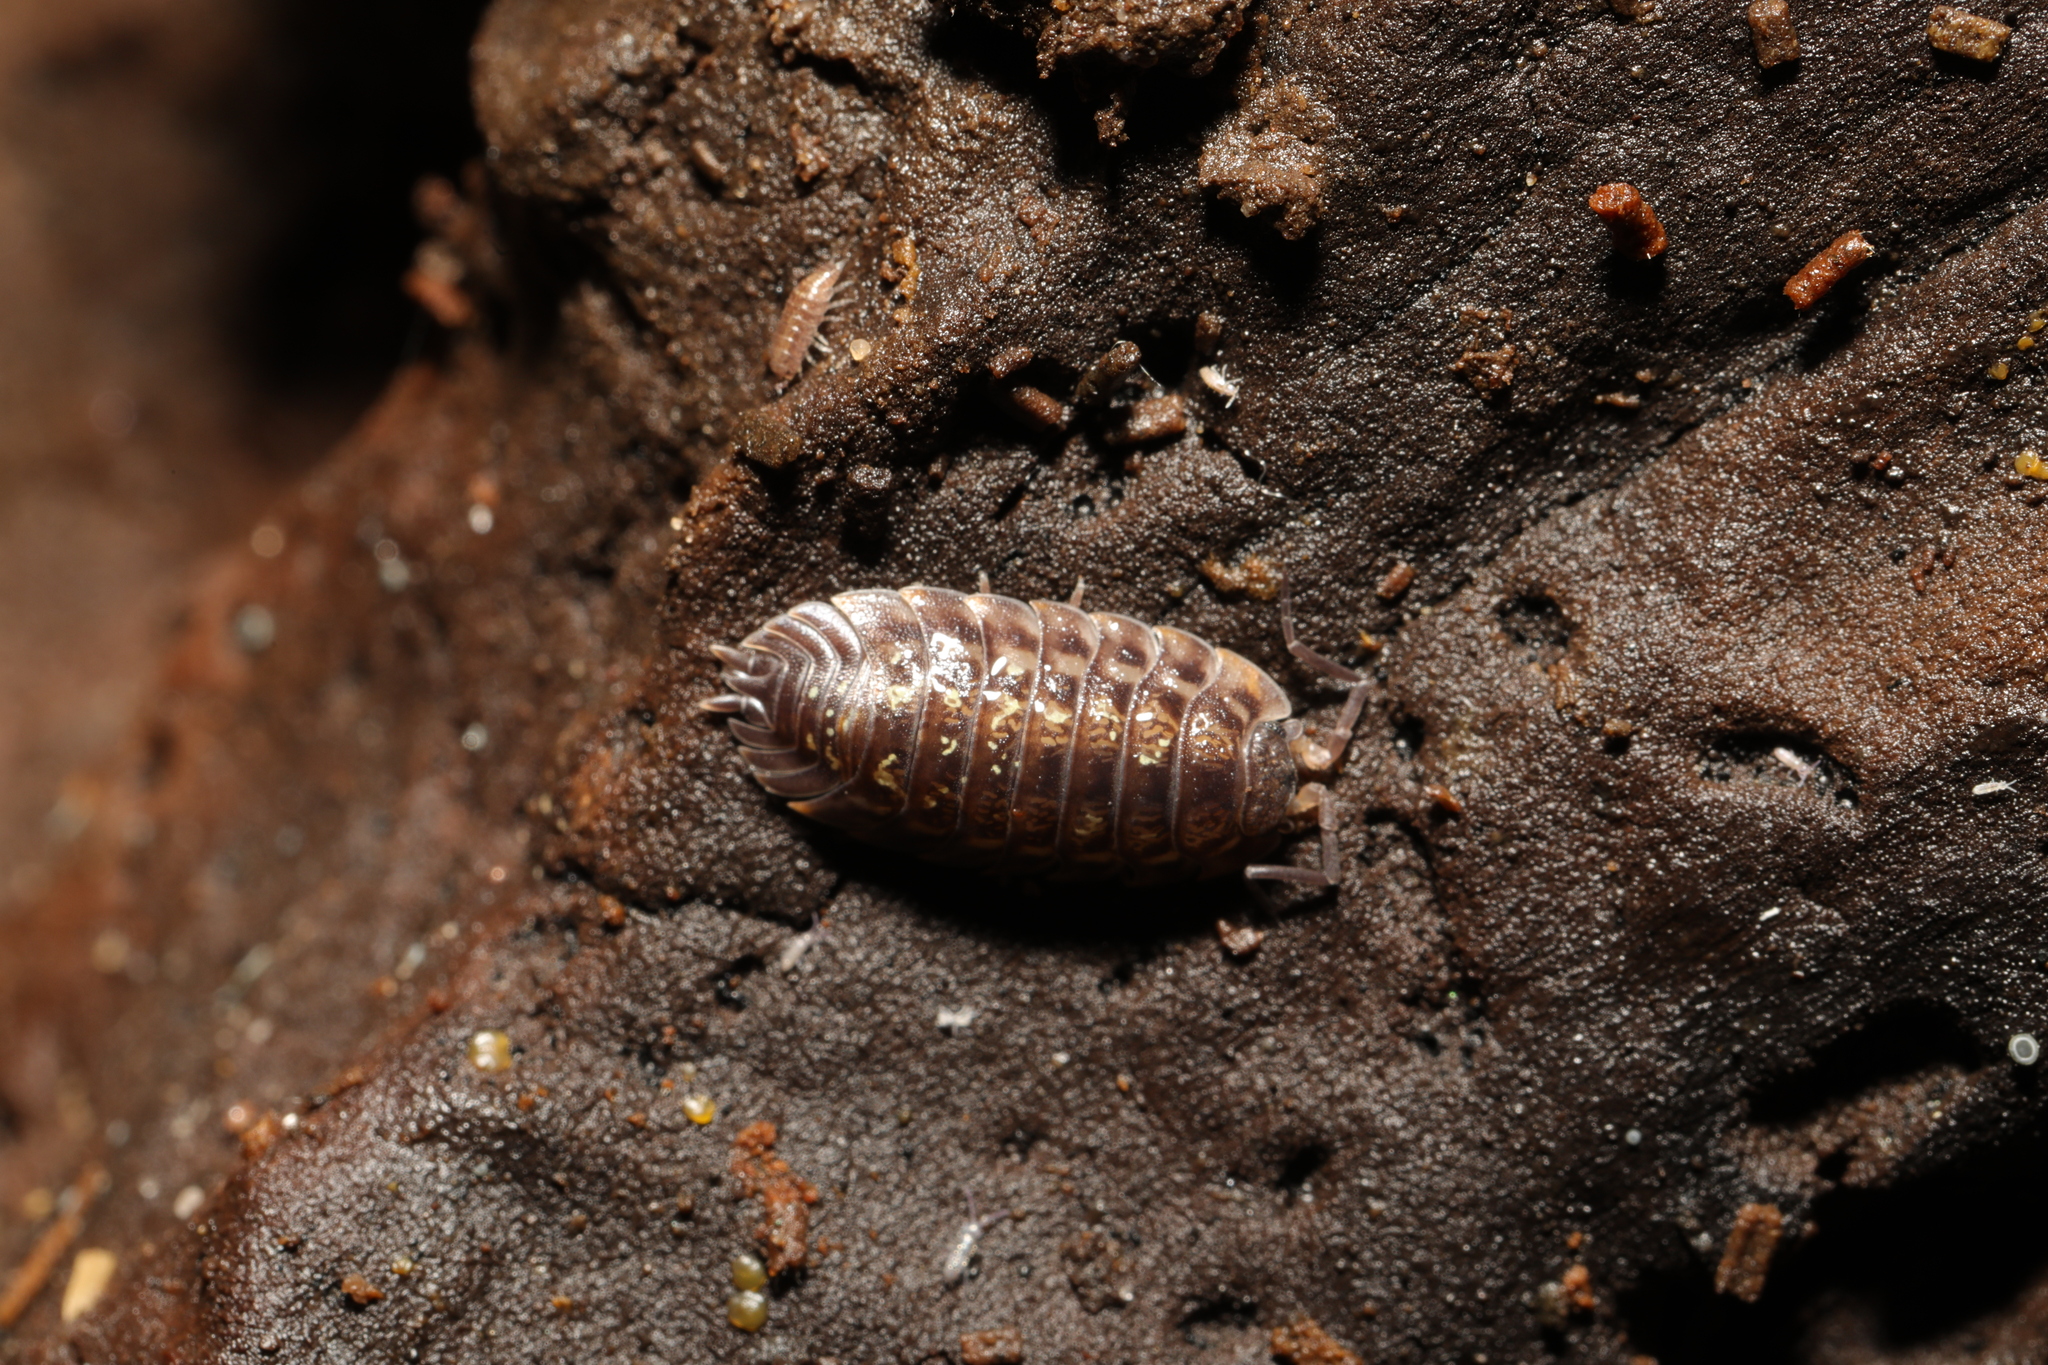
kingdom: Animalia
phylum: Arthropoda
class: Malacostraca
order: Isopoda
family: Oniscidae
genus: Oniscus
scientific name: Oniscus asellus
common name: Common shiny woodlouse
